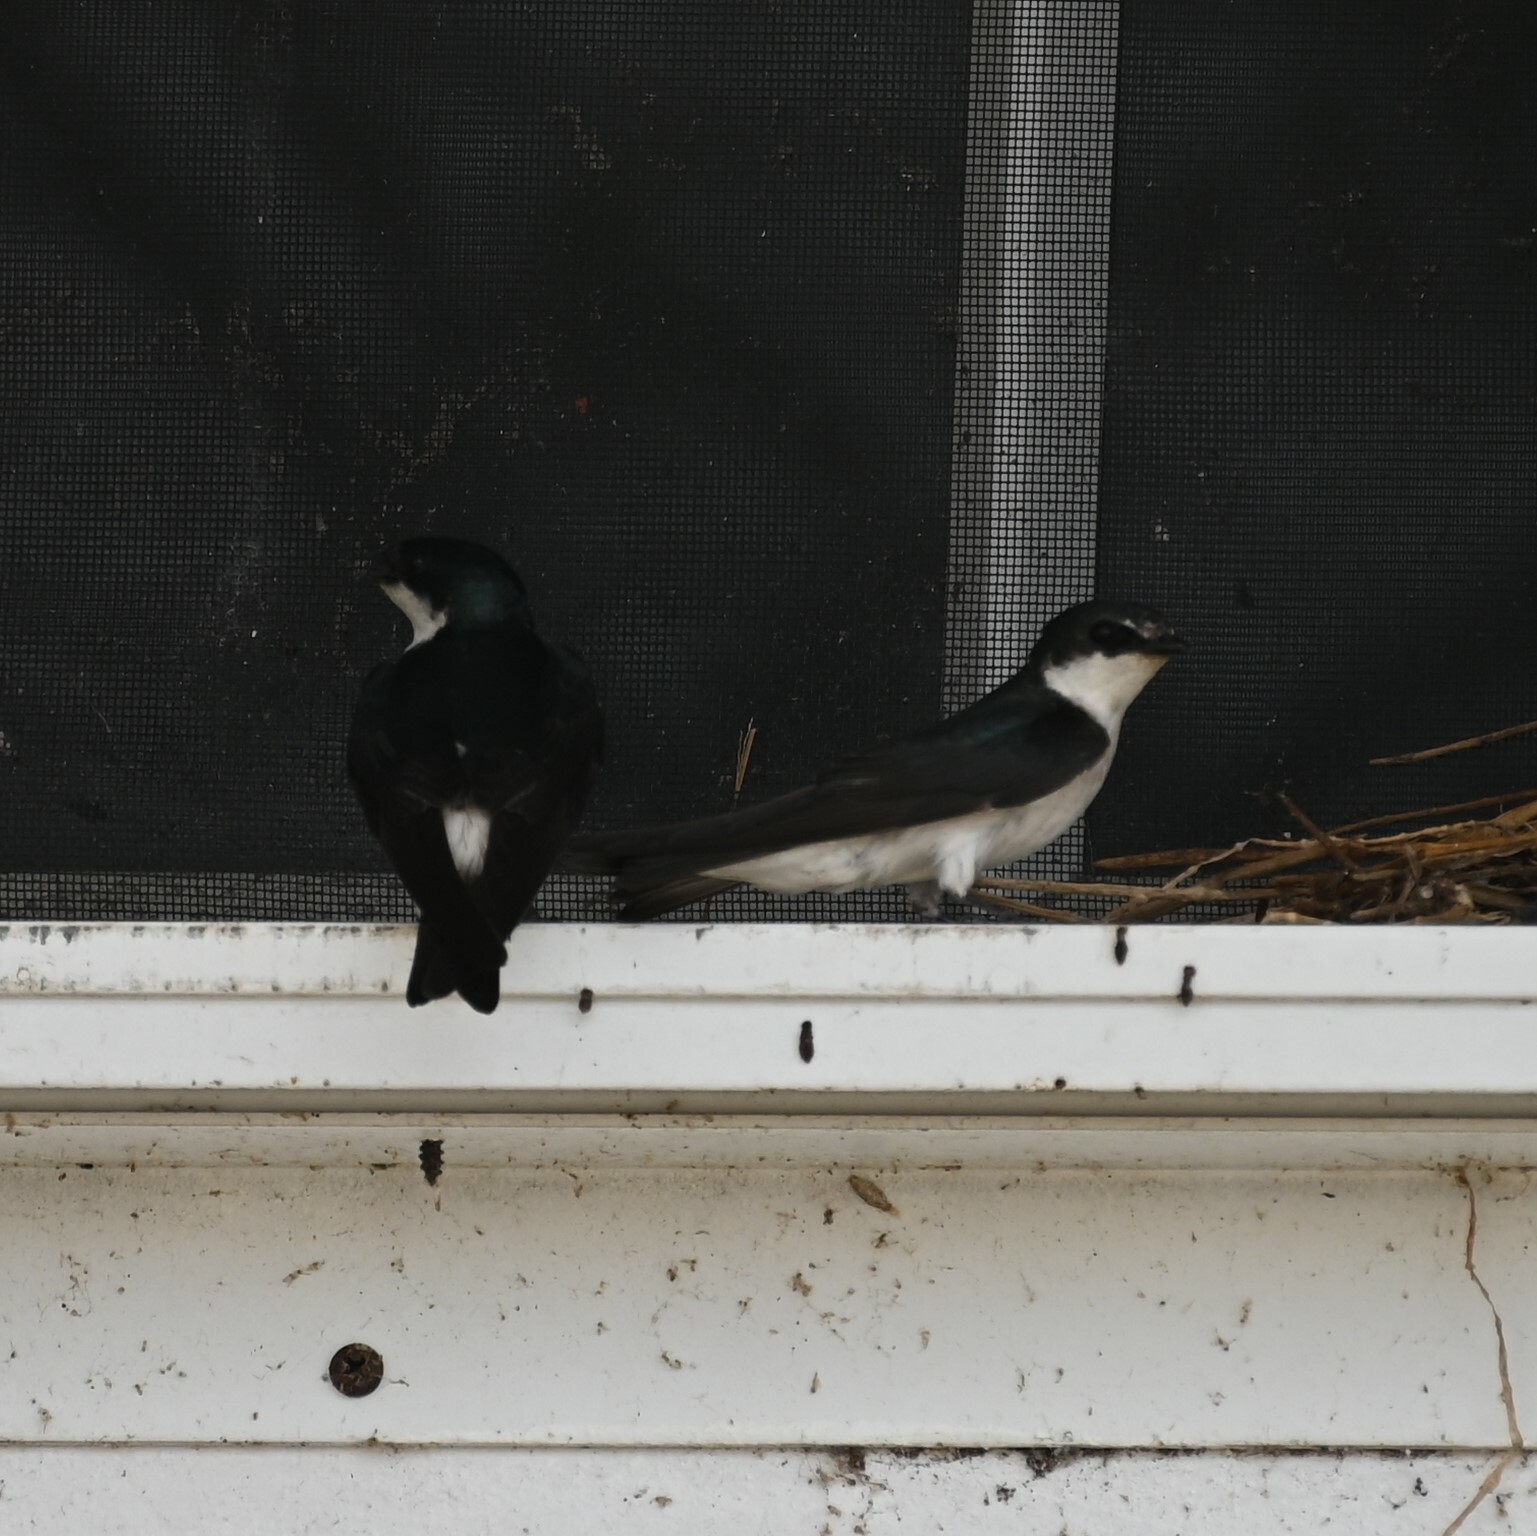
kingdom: Animalia
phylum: Chordata
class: Aves
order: Passeriformes
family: Hirundinidae
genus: Tachycineta
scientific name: Tachycineta albilinea
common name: Mangrove swallow
